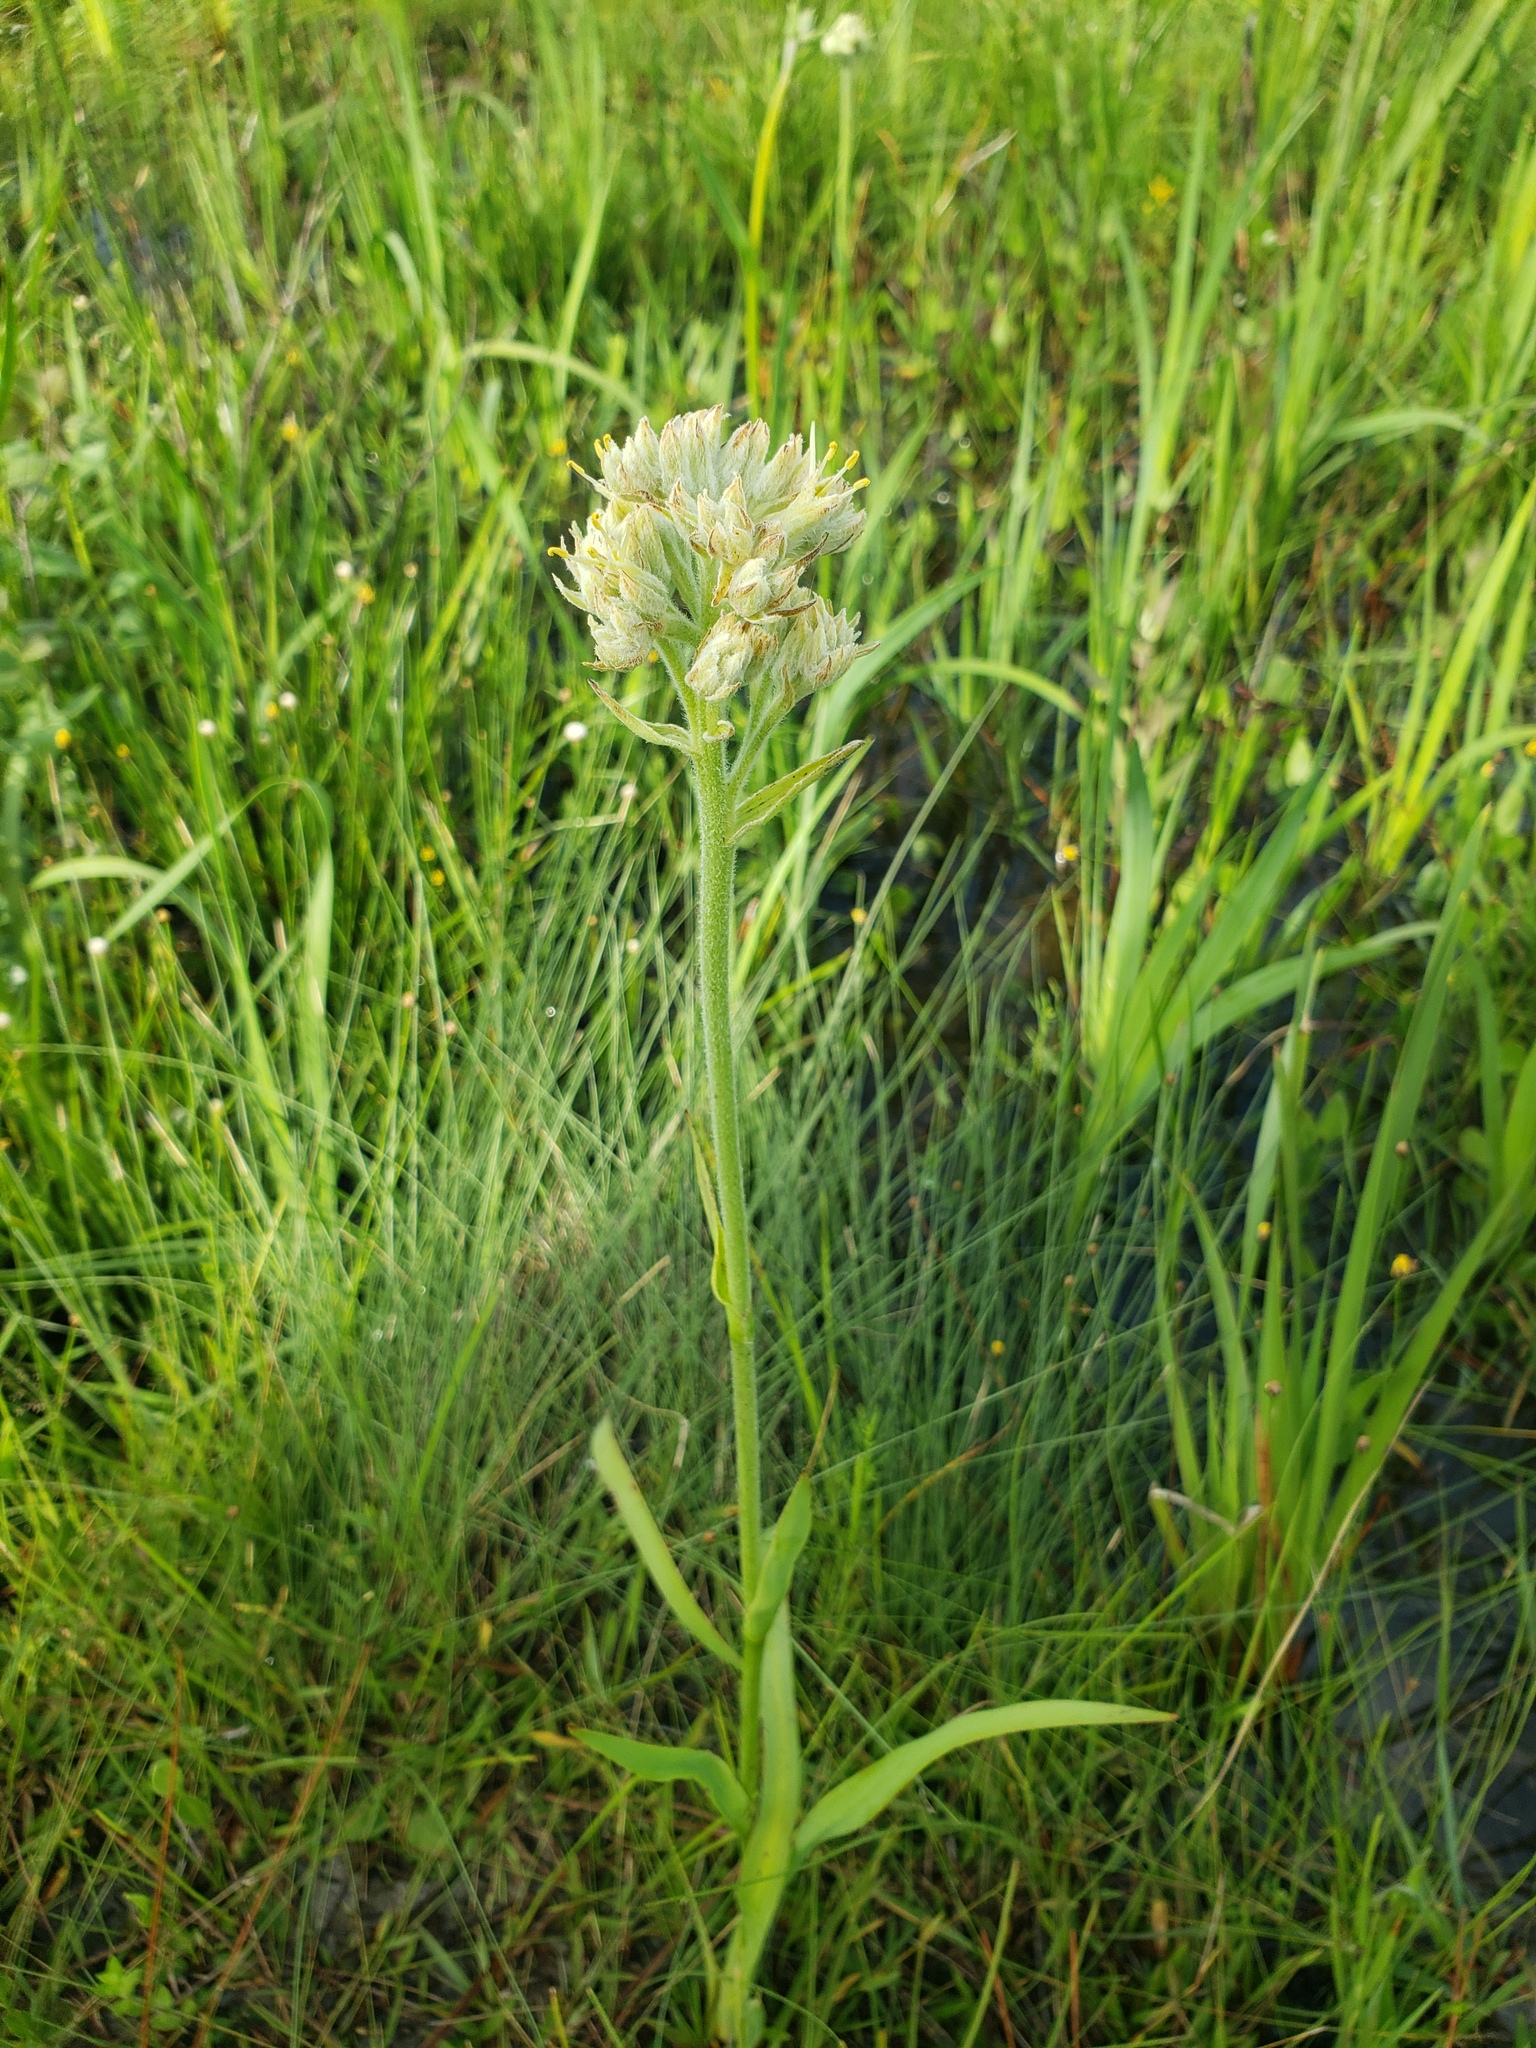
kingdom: Plantae
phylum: Tracheophyta
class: Liliopsida
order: Commelinales
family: Haemodoraceae
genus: Lachnanthes
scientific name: Lachnanthes caroliana
